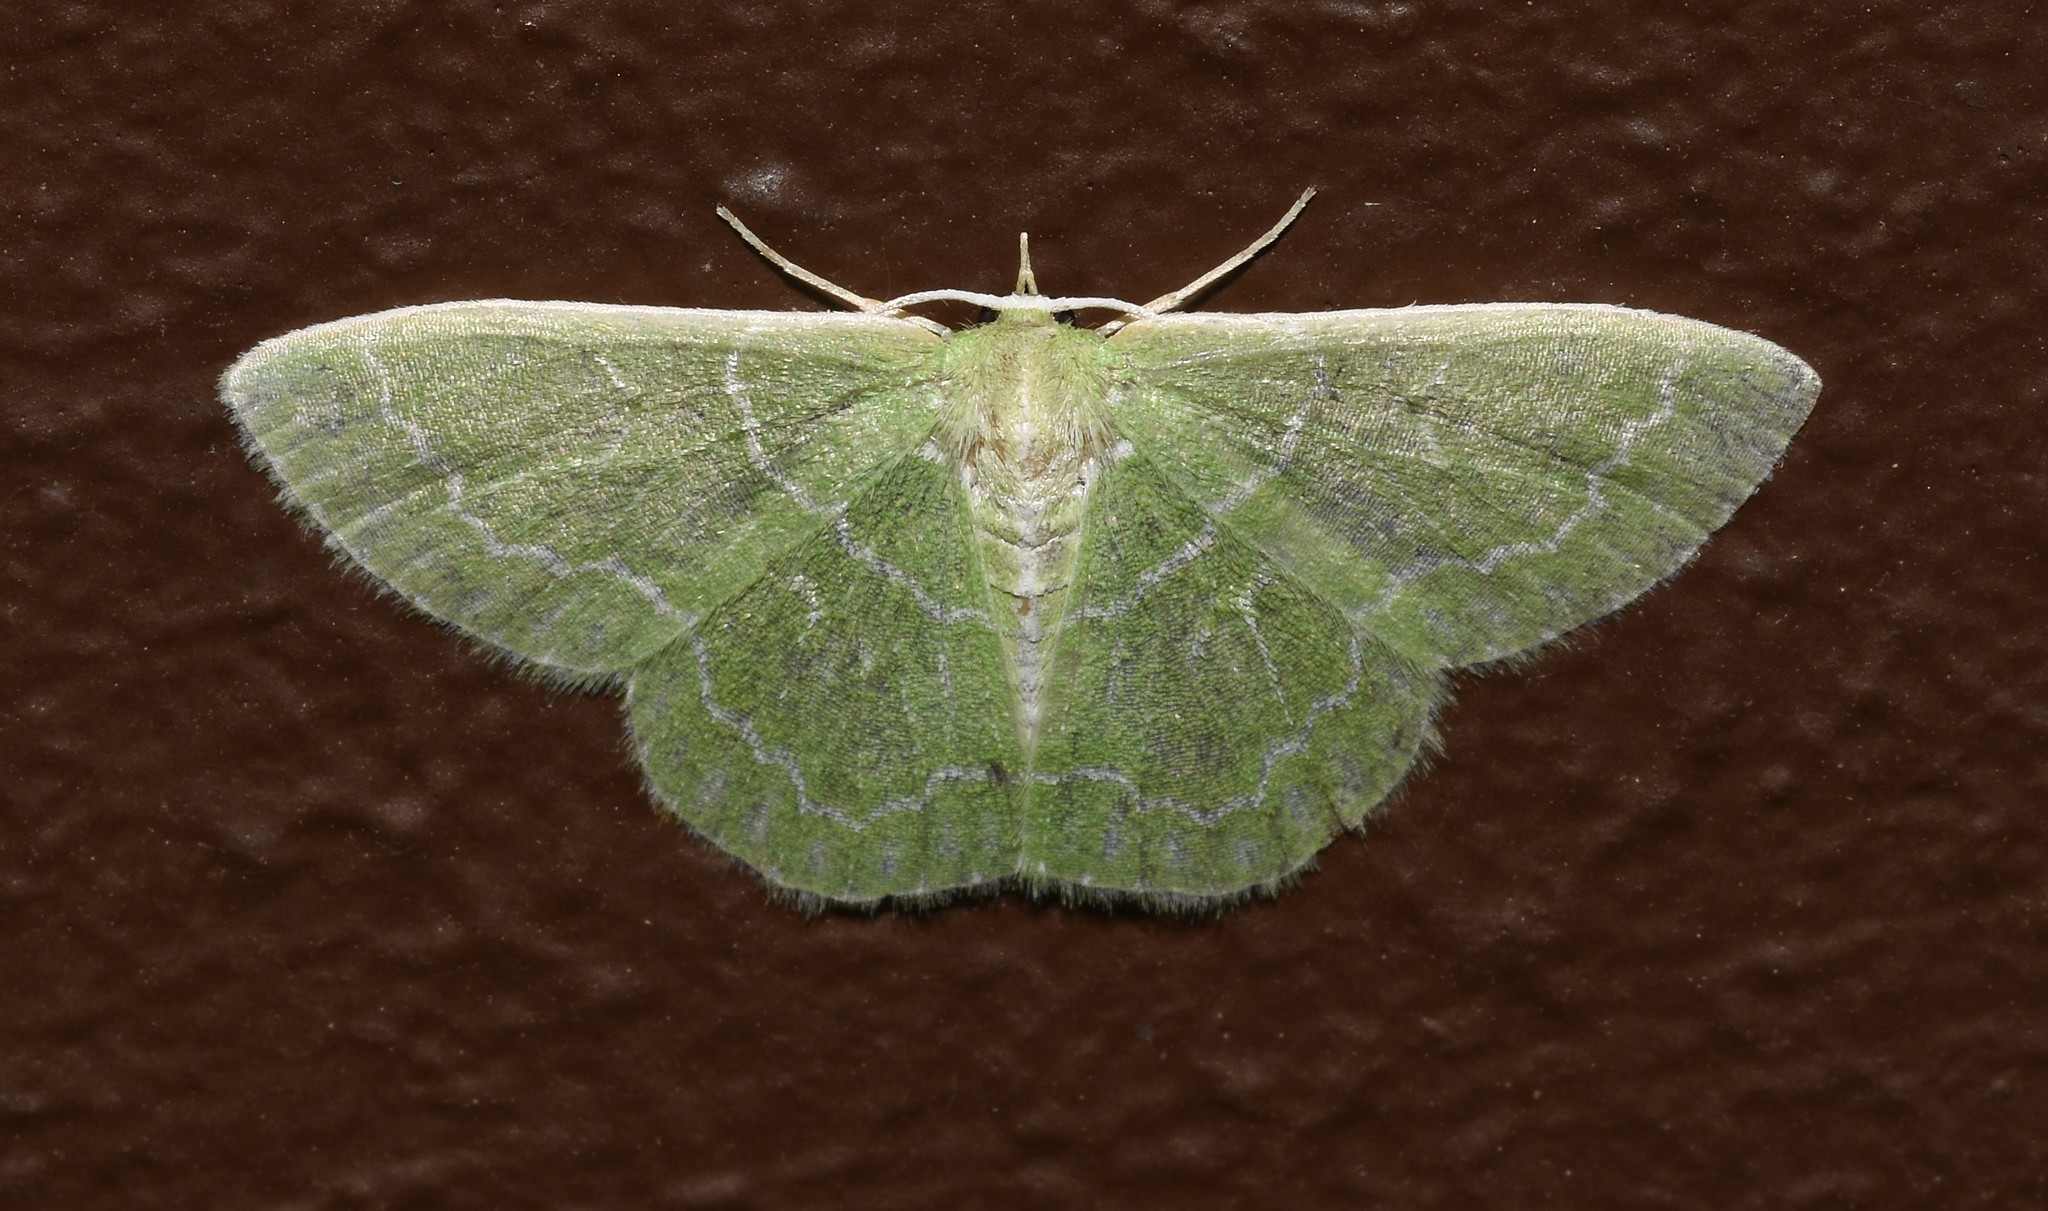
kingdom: Animalia
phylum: Arthropoda
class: Insecta
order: Lepidoptera
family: Geometridae
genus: Synchlora
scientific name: Synchlora aerata
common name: Wavy-lined emerald
